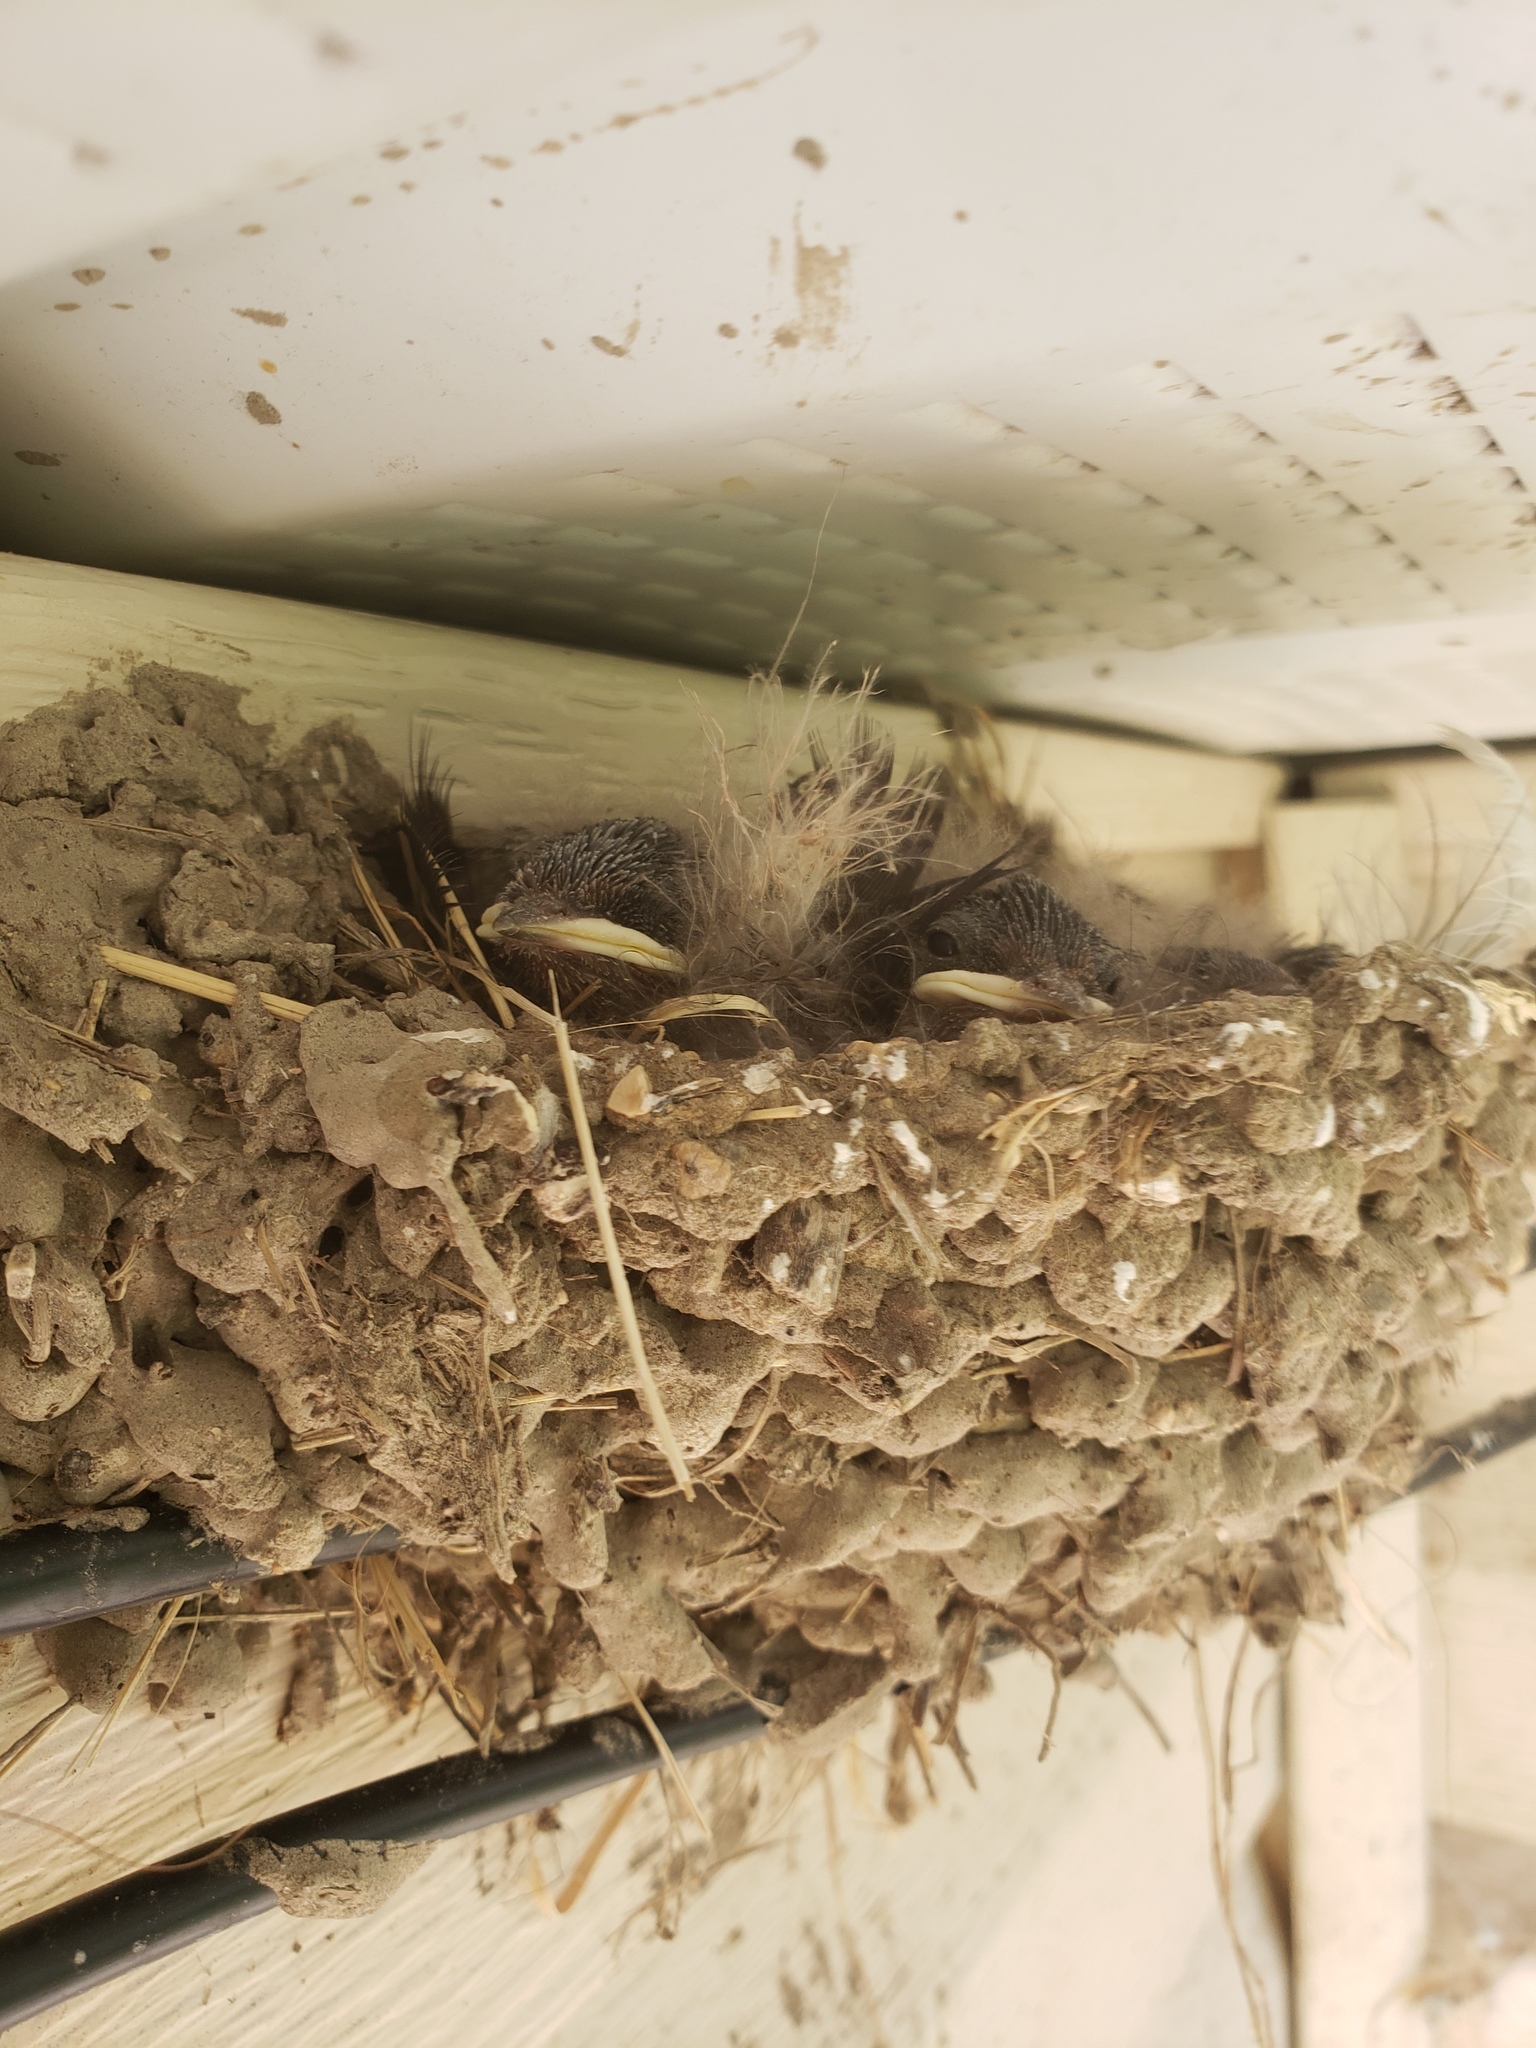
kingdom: Animalia
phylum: Chordata
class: Aves
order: Passeriformes
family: Hirundinidae
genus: Hirundo
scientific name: Hirundo rustica
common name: Barn swallow
